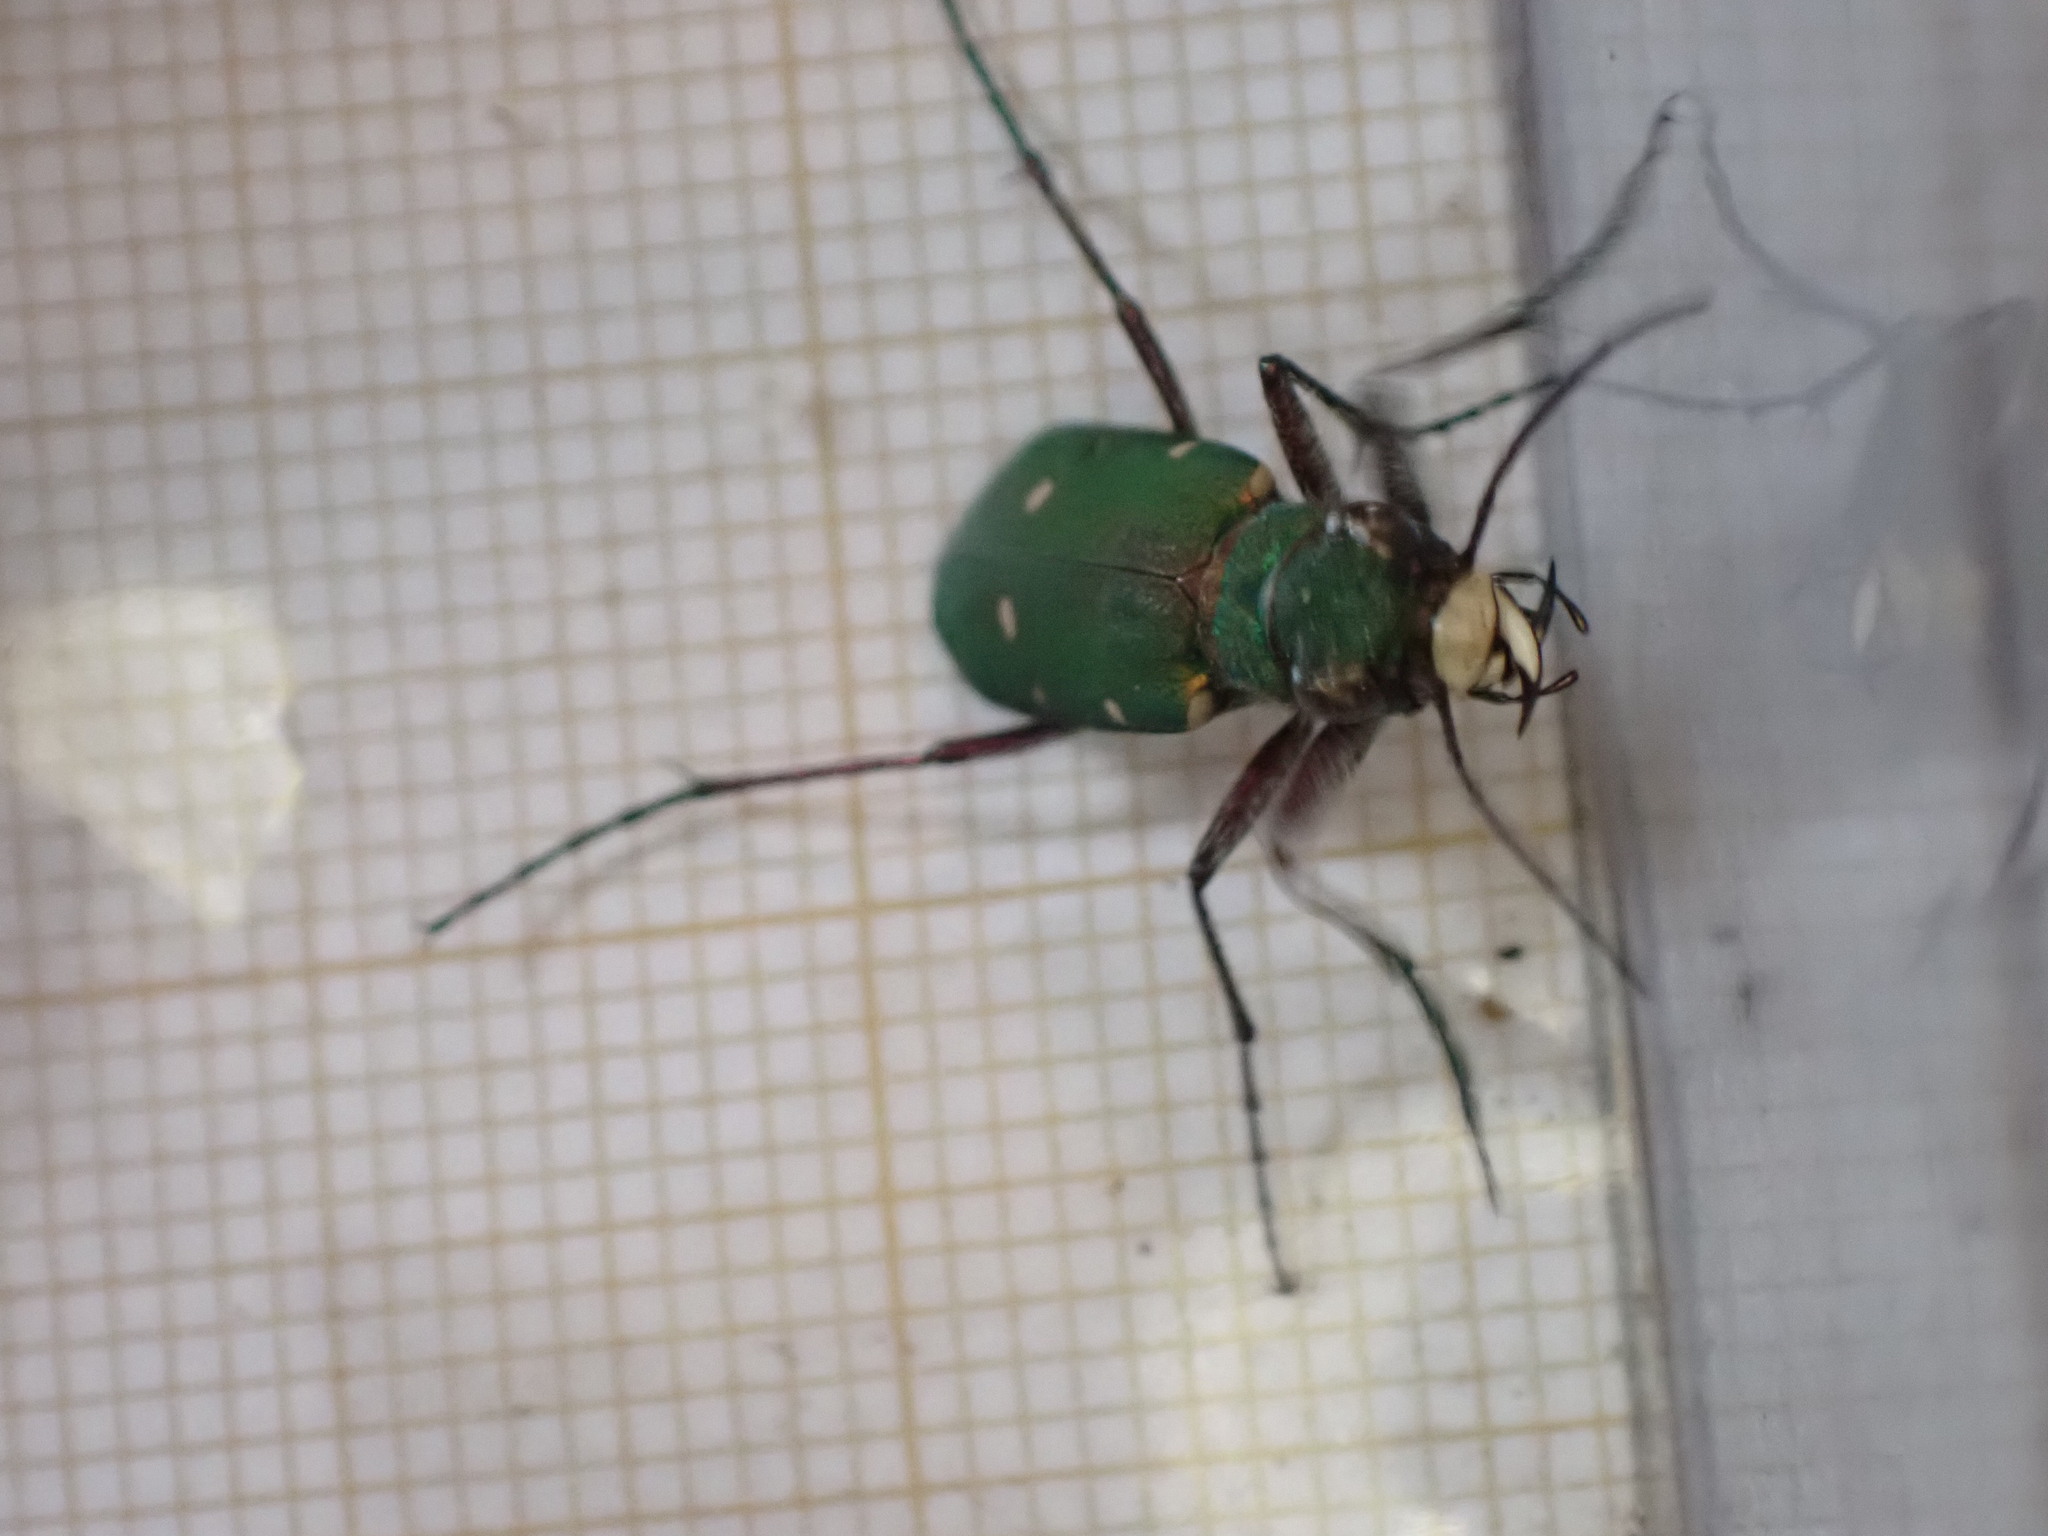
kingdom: Animalia
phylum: Arthropoda
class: Insecta
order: Coleoptera
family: Carabidae
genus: Cicindela
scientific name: Cicindela campestris
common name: Common tiger beetle
